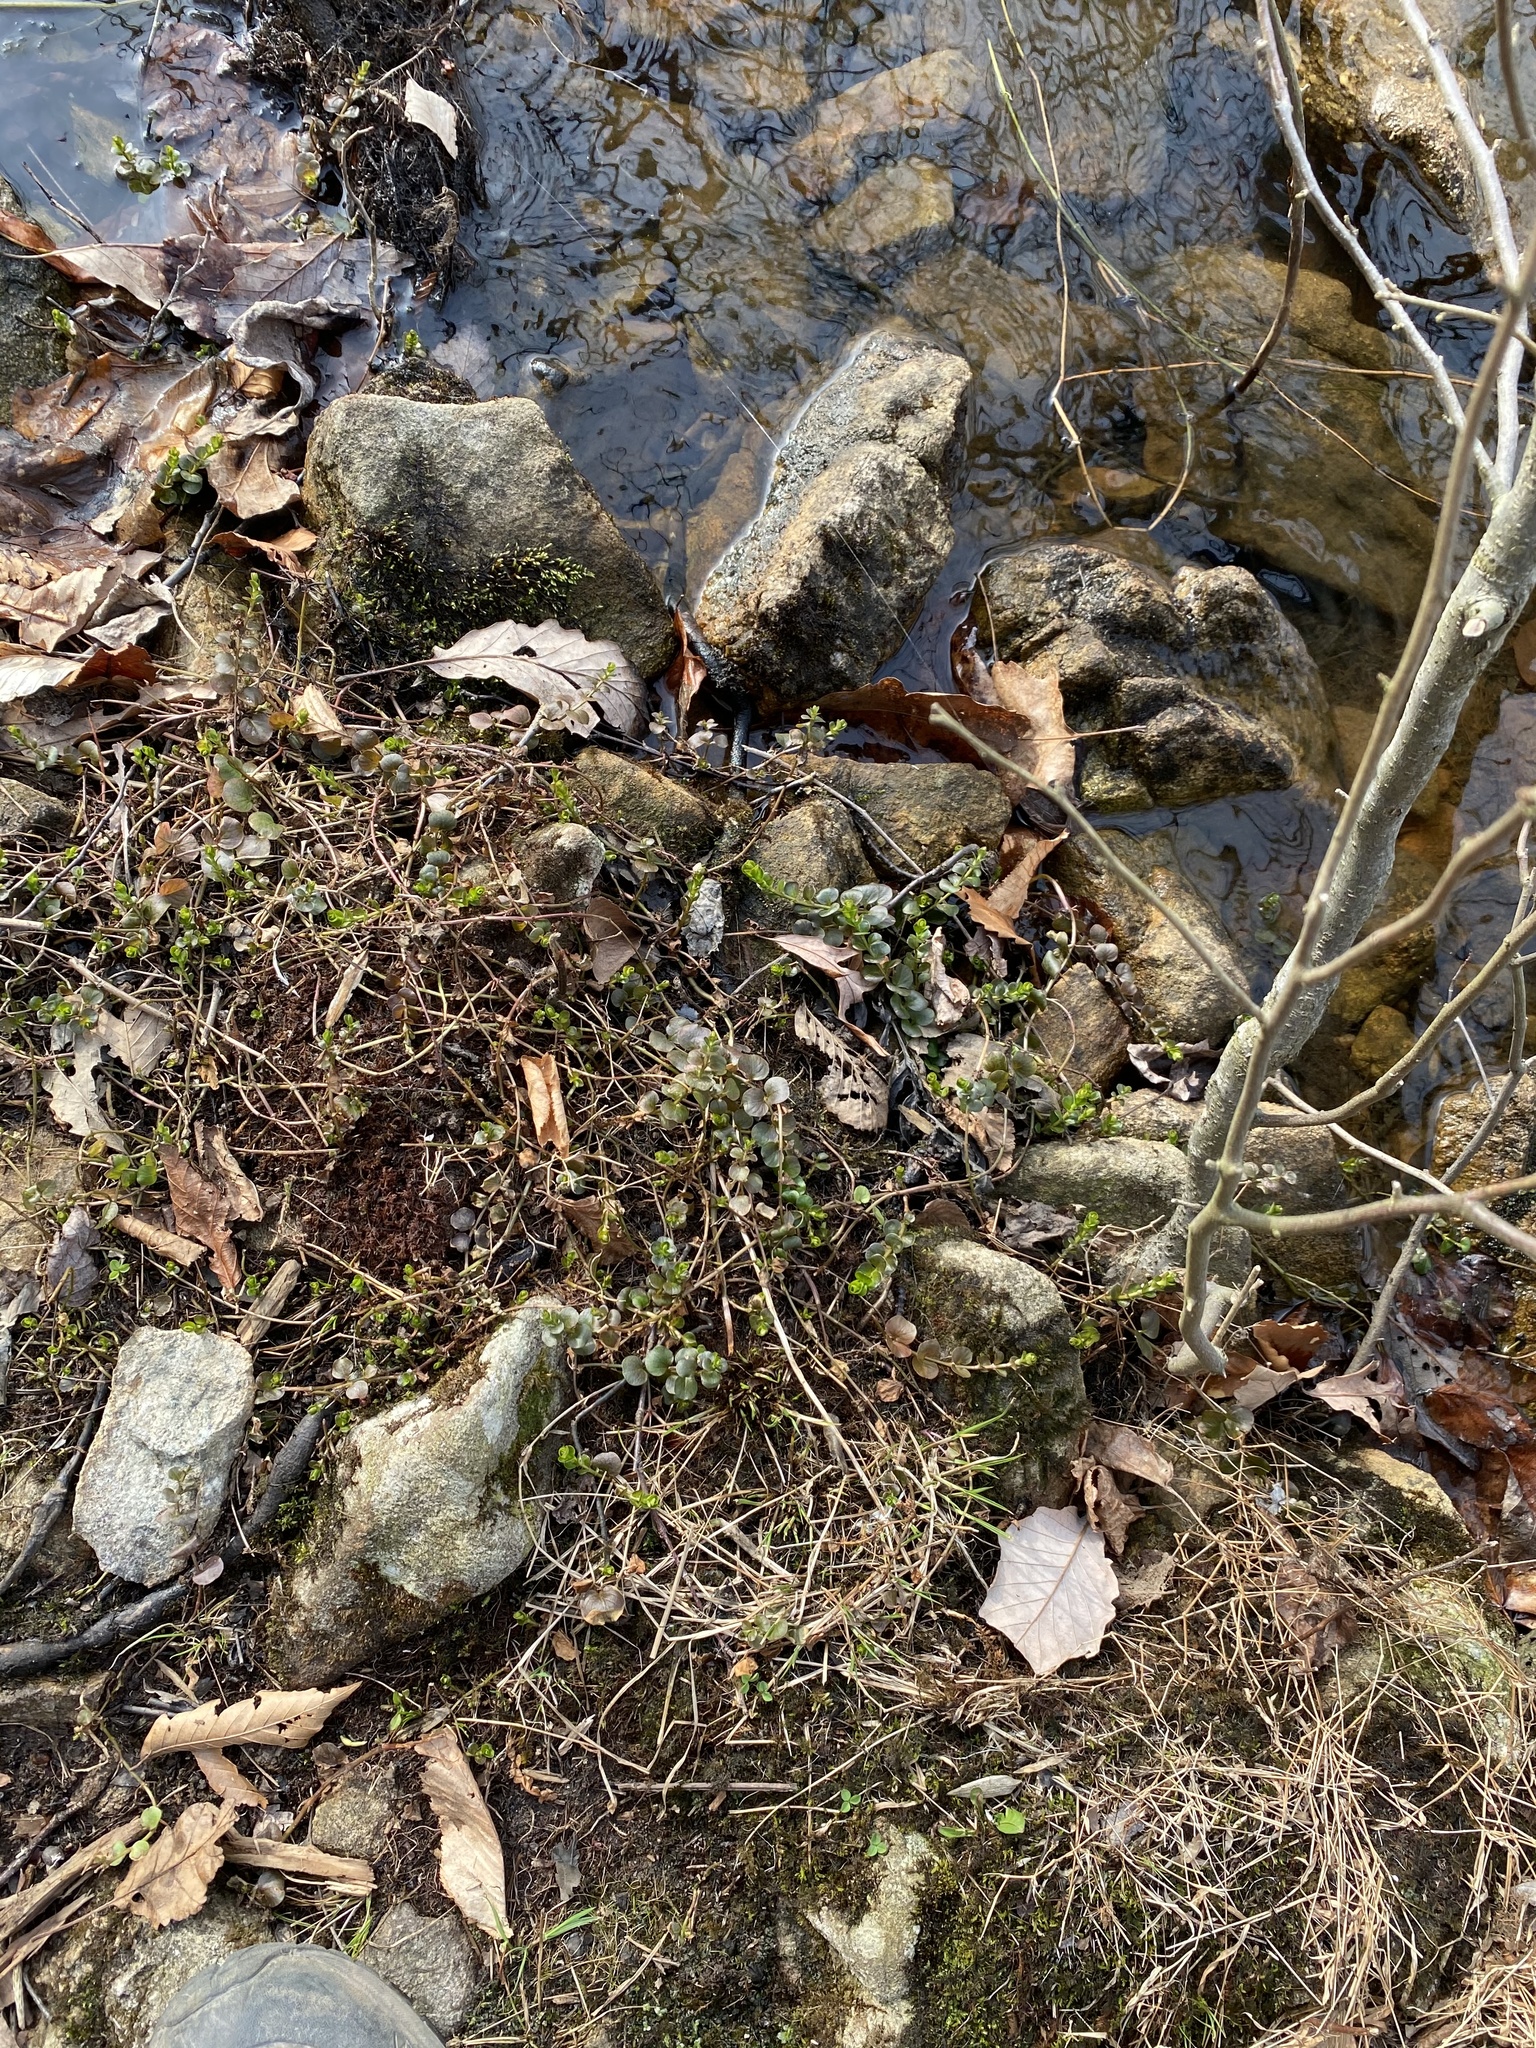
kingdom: Plantae
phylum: Tracheophyta
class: Magnoliopsida
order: Ericales
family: Primulaceae
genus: Lysimachia
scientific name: Lysimachia nummularia
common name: Moneywort
